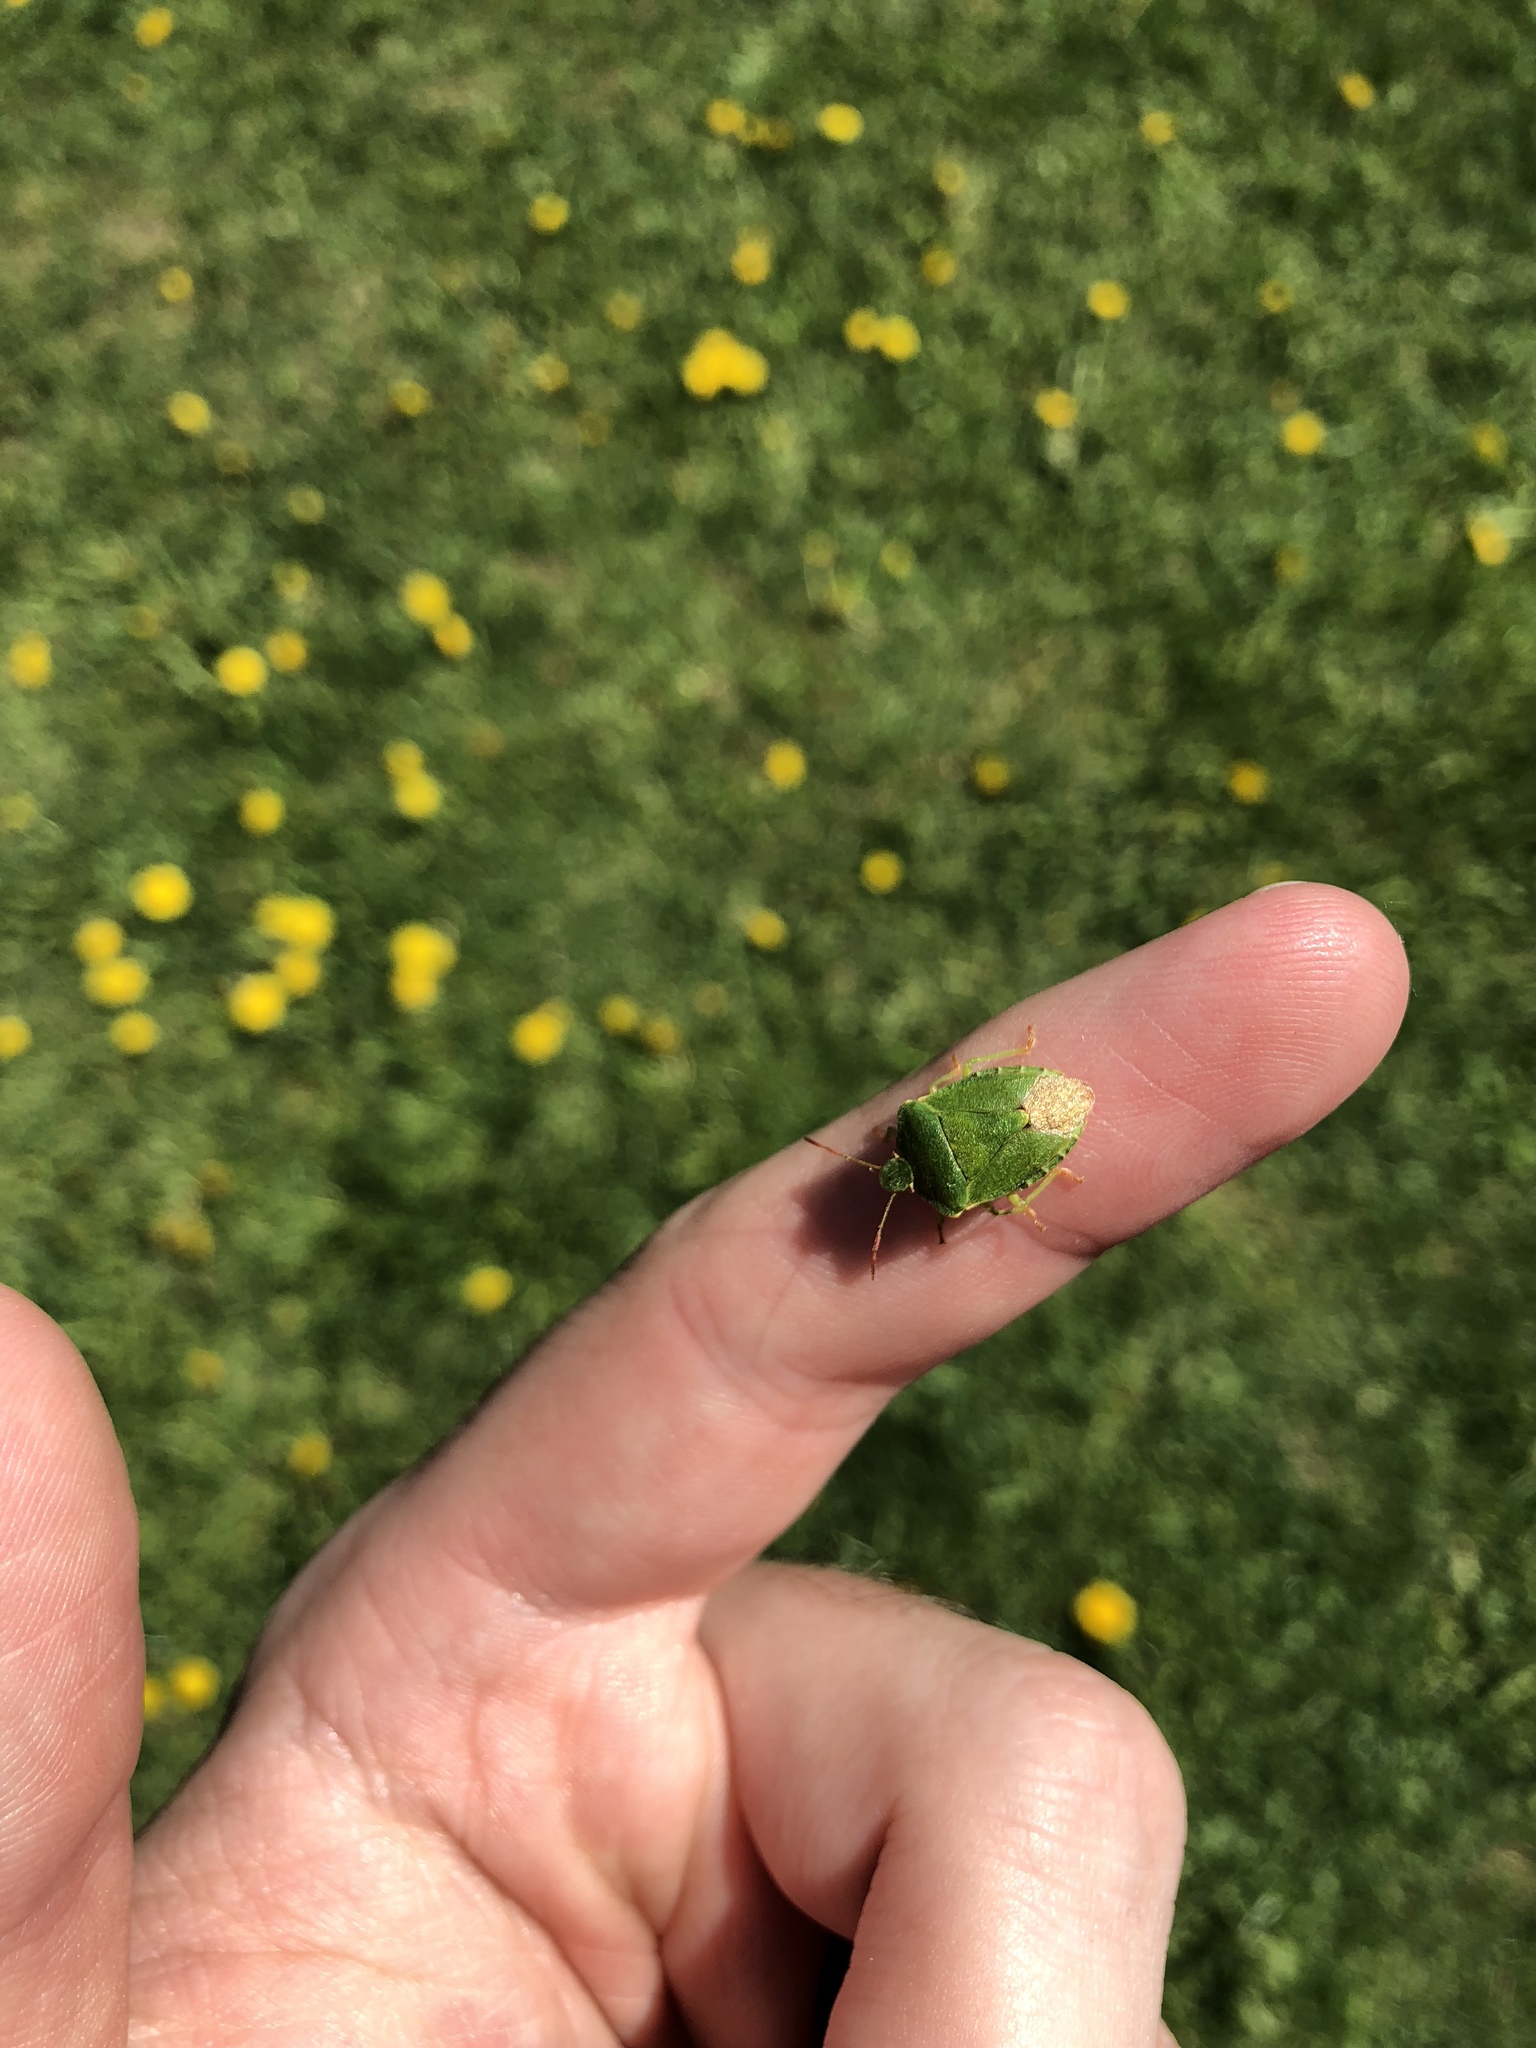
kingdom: Animalia
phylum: Arthropoda
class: Insecta
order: Hemiptera
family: Pentatomidae
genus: Palomena
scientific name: Palomena prasina
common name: Green shieldbug
